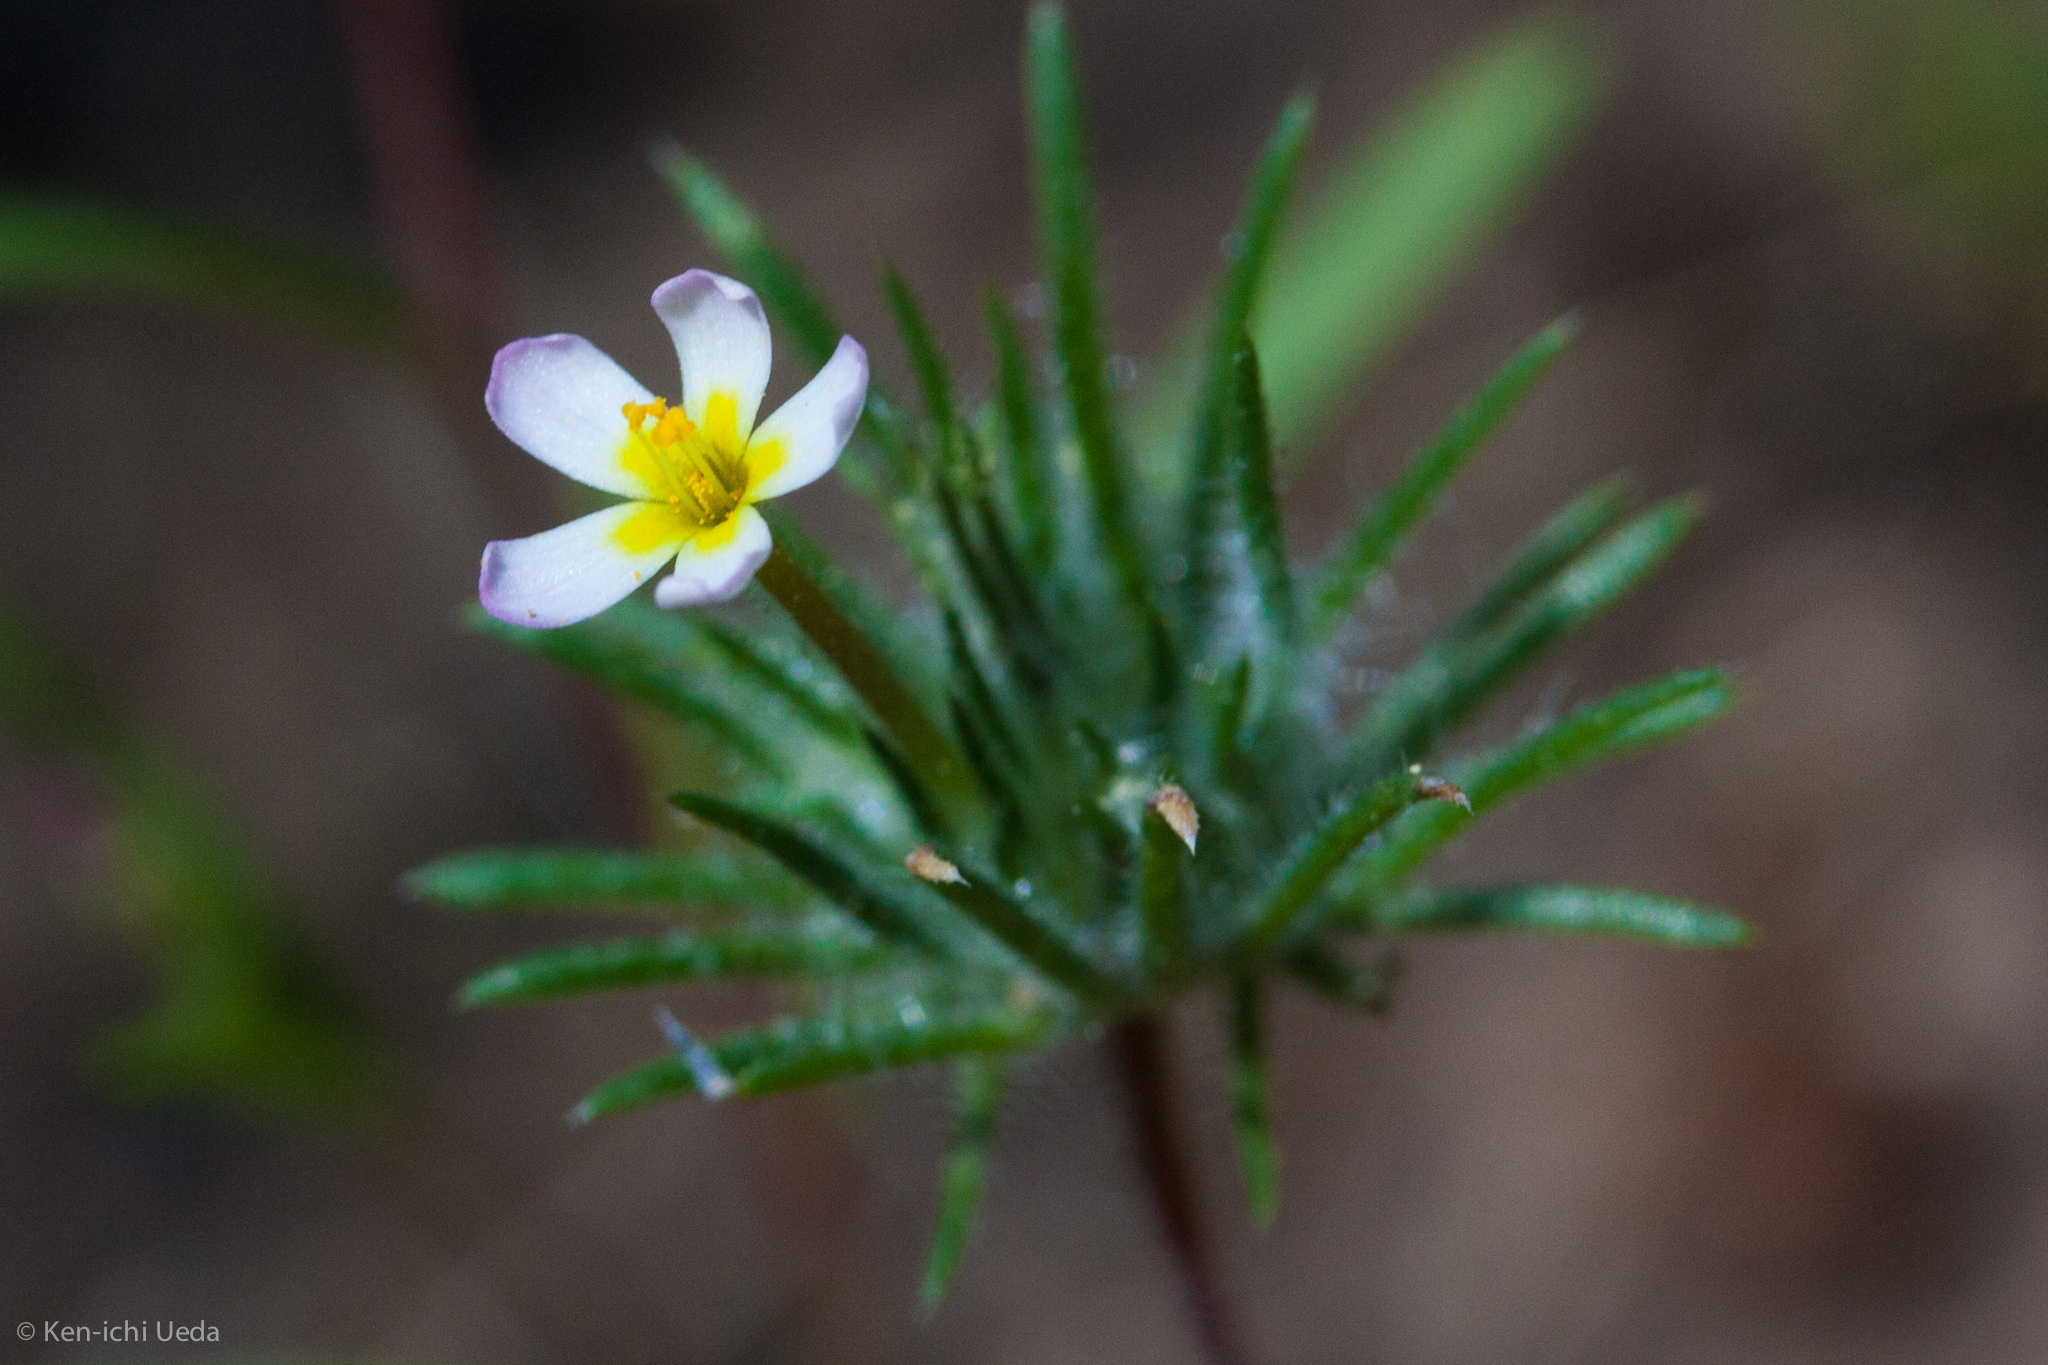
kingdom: Plantae
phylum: Tracheophyta
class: Magnoliopsida
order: Ericales
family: Polemoniaceae
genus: Leptosiphon
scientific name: Leptosiphon ciliatus
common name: Whiskerbrush
